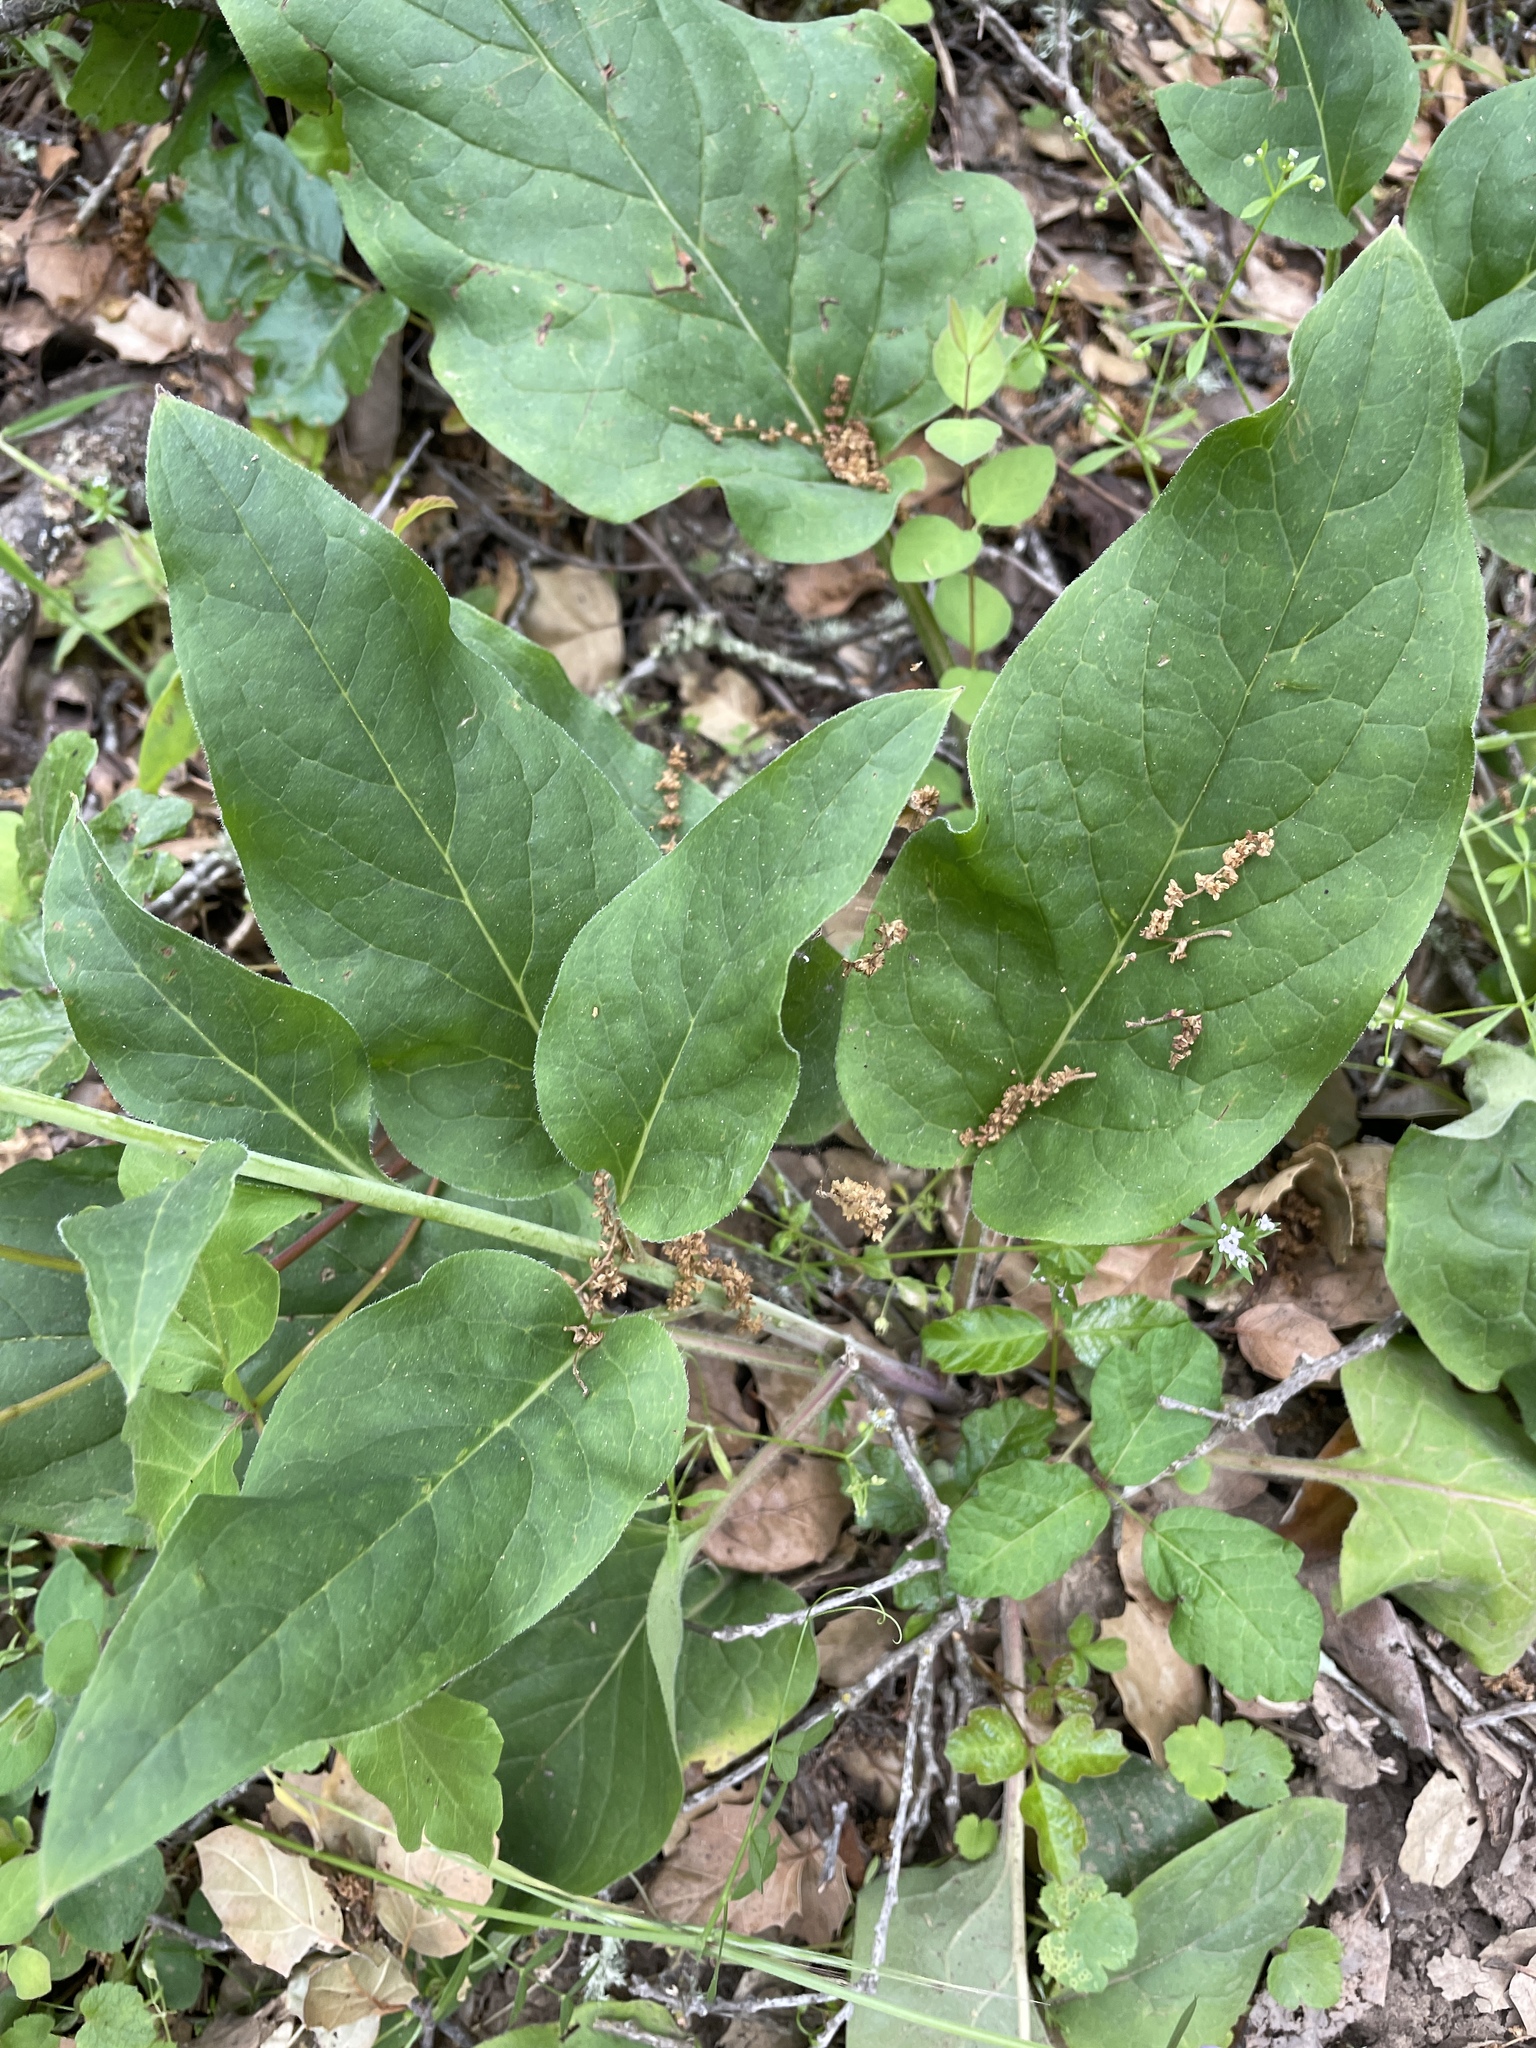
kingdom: Plantae
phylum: Tracheophyta
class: Magnoliopsida
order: Boraginales
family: Boraginaceae
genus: Adelinia
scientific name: Adelinia grande
